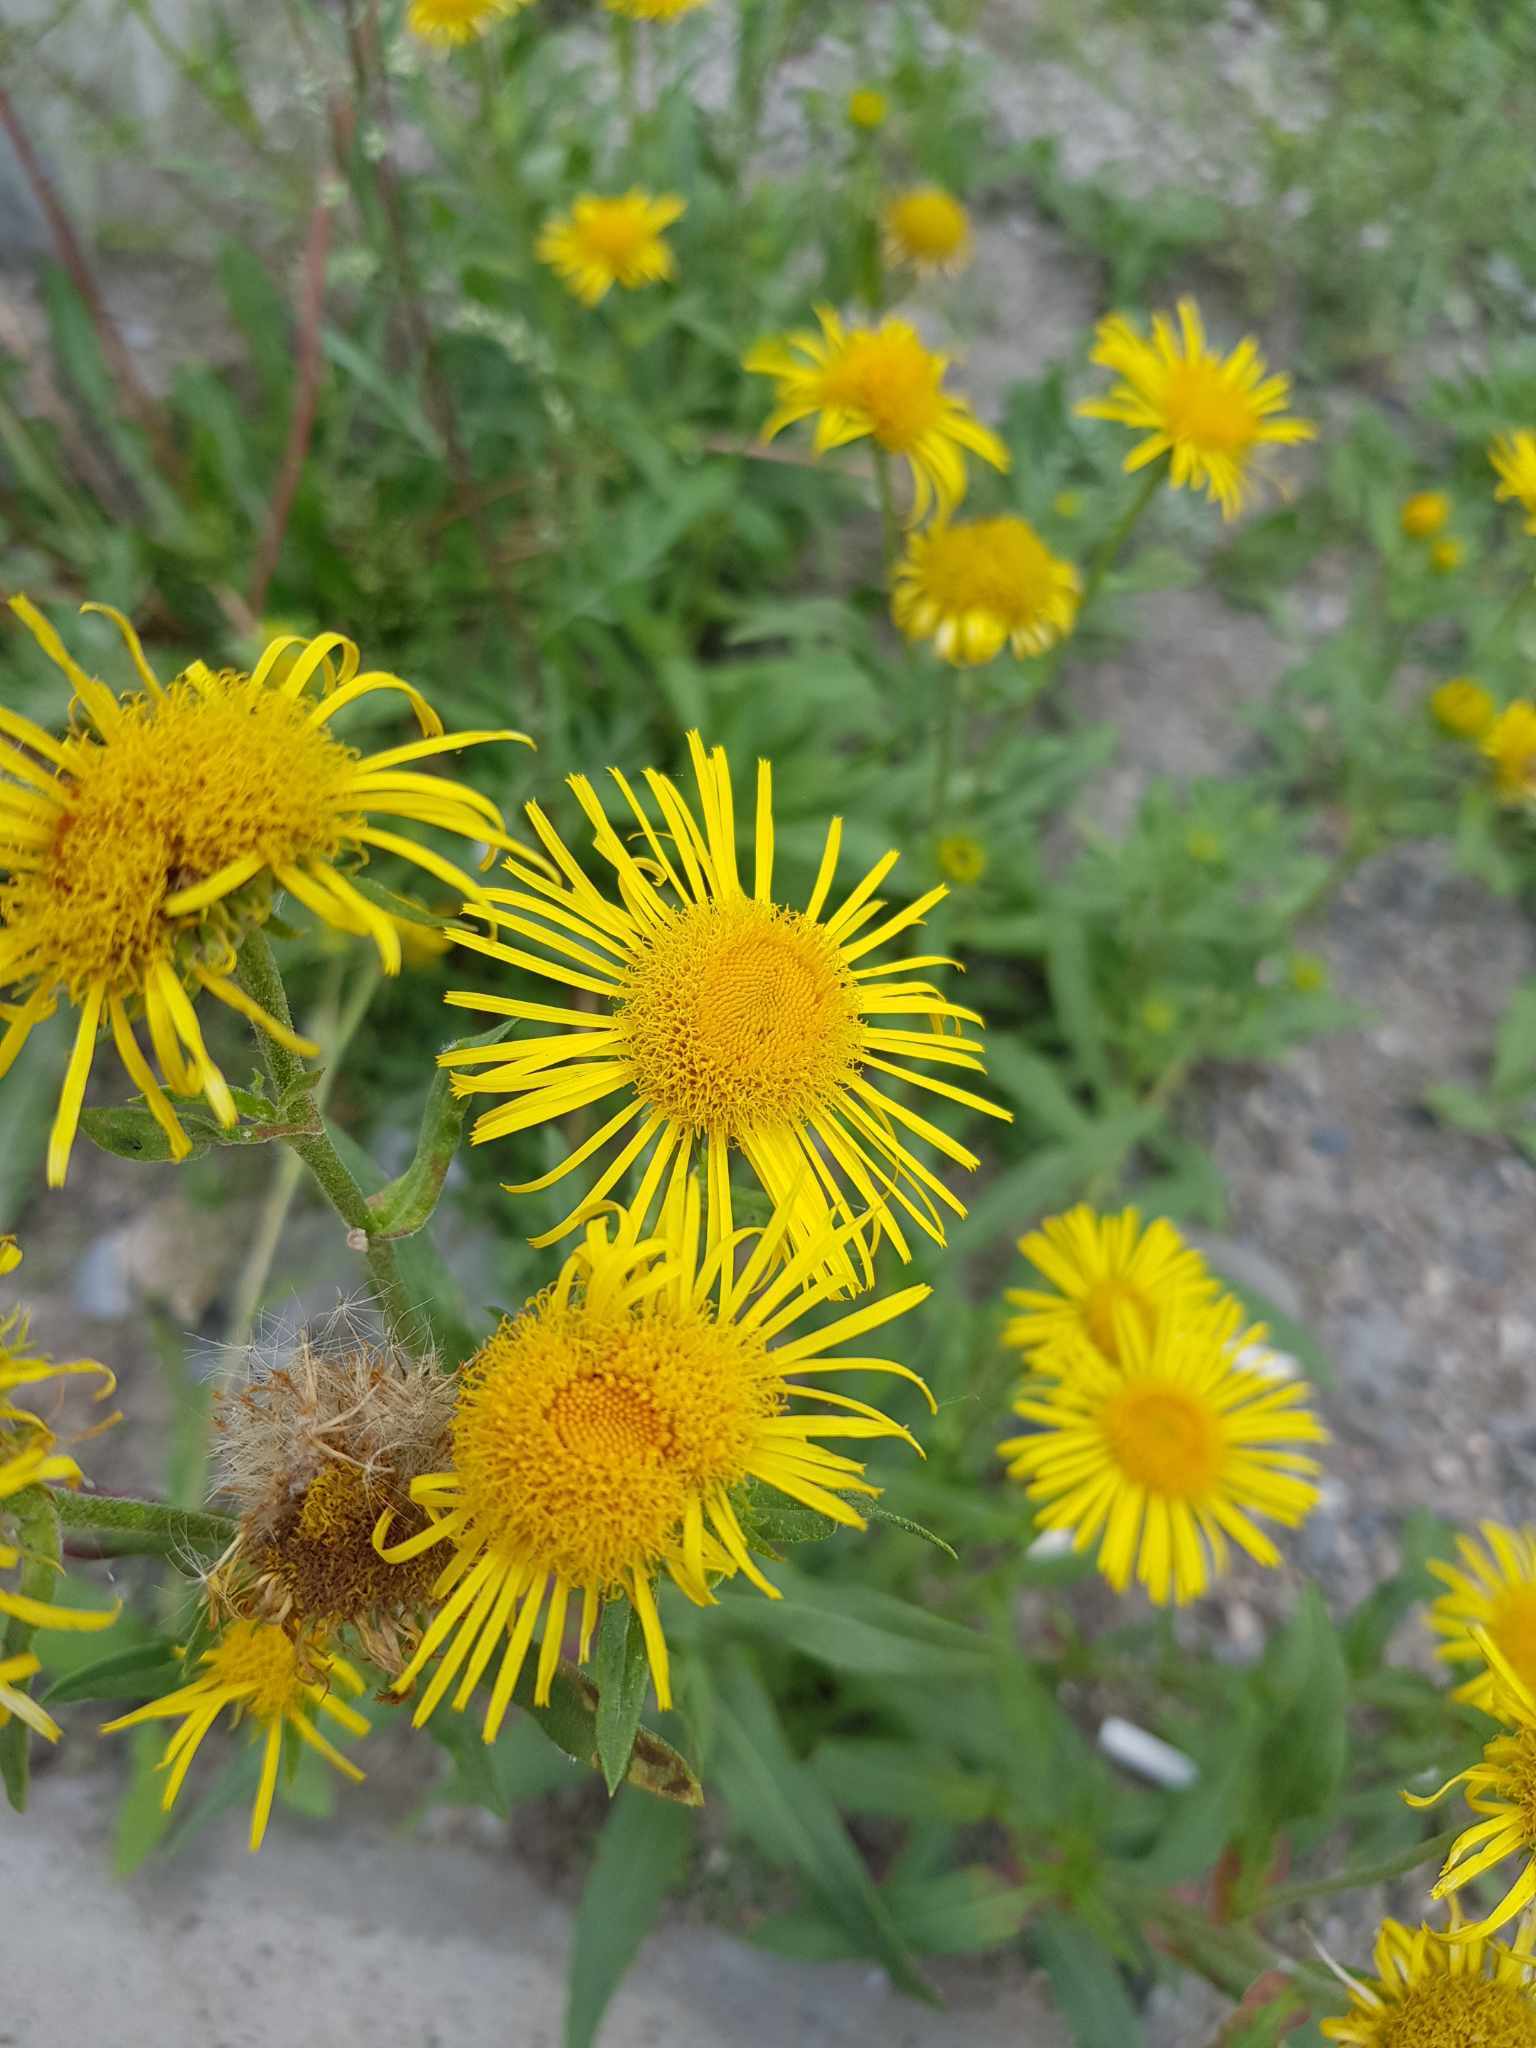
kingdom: Plantae
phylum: Tracheophyta
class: Magnoliopsida
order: Asterales
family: Asteraceae
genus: Pentanema
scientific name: Pentanema britannicum
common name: British elecampane
